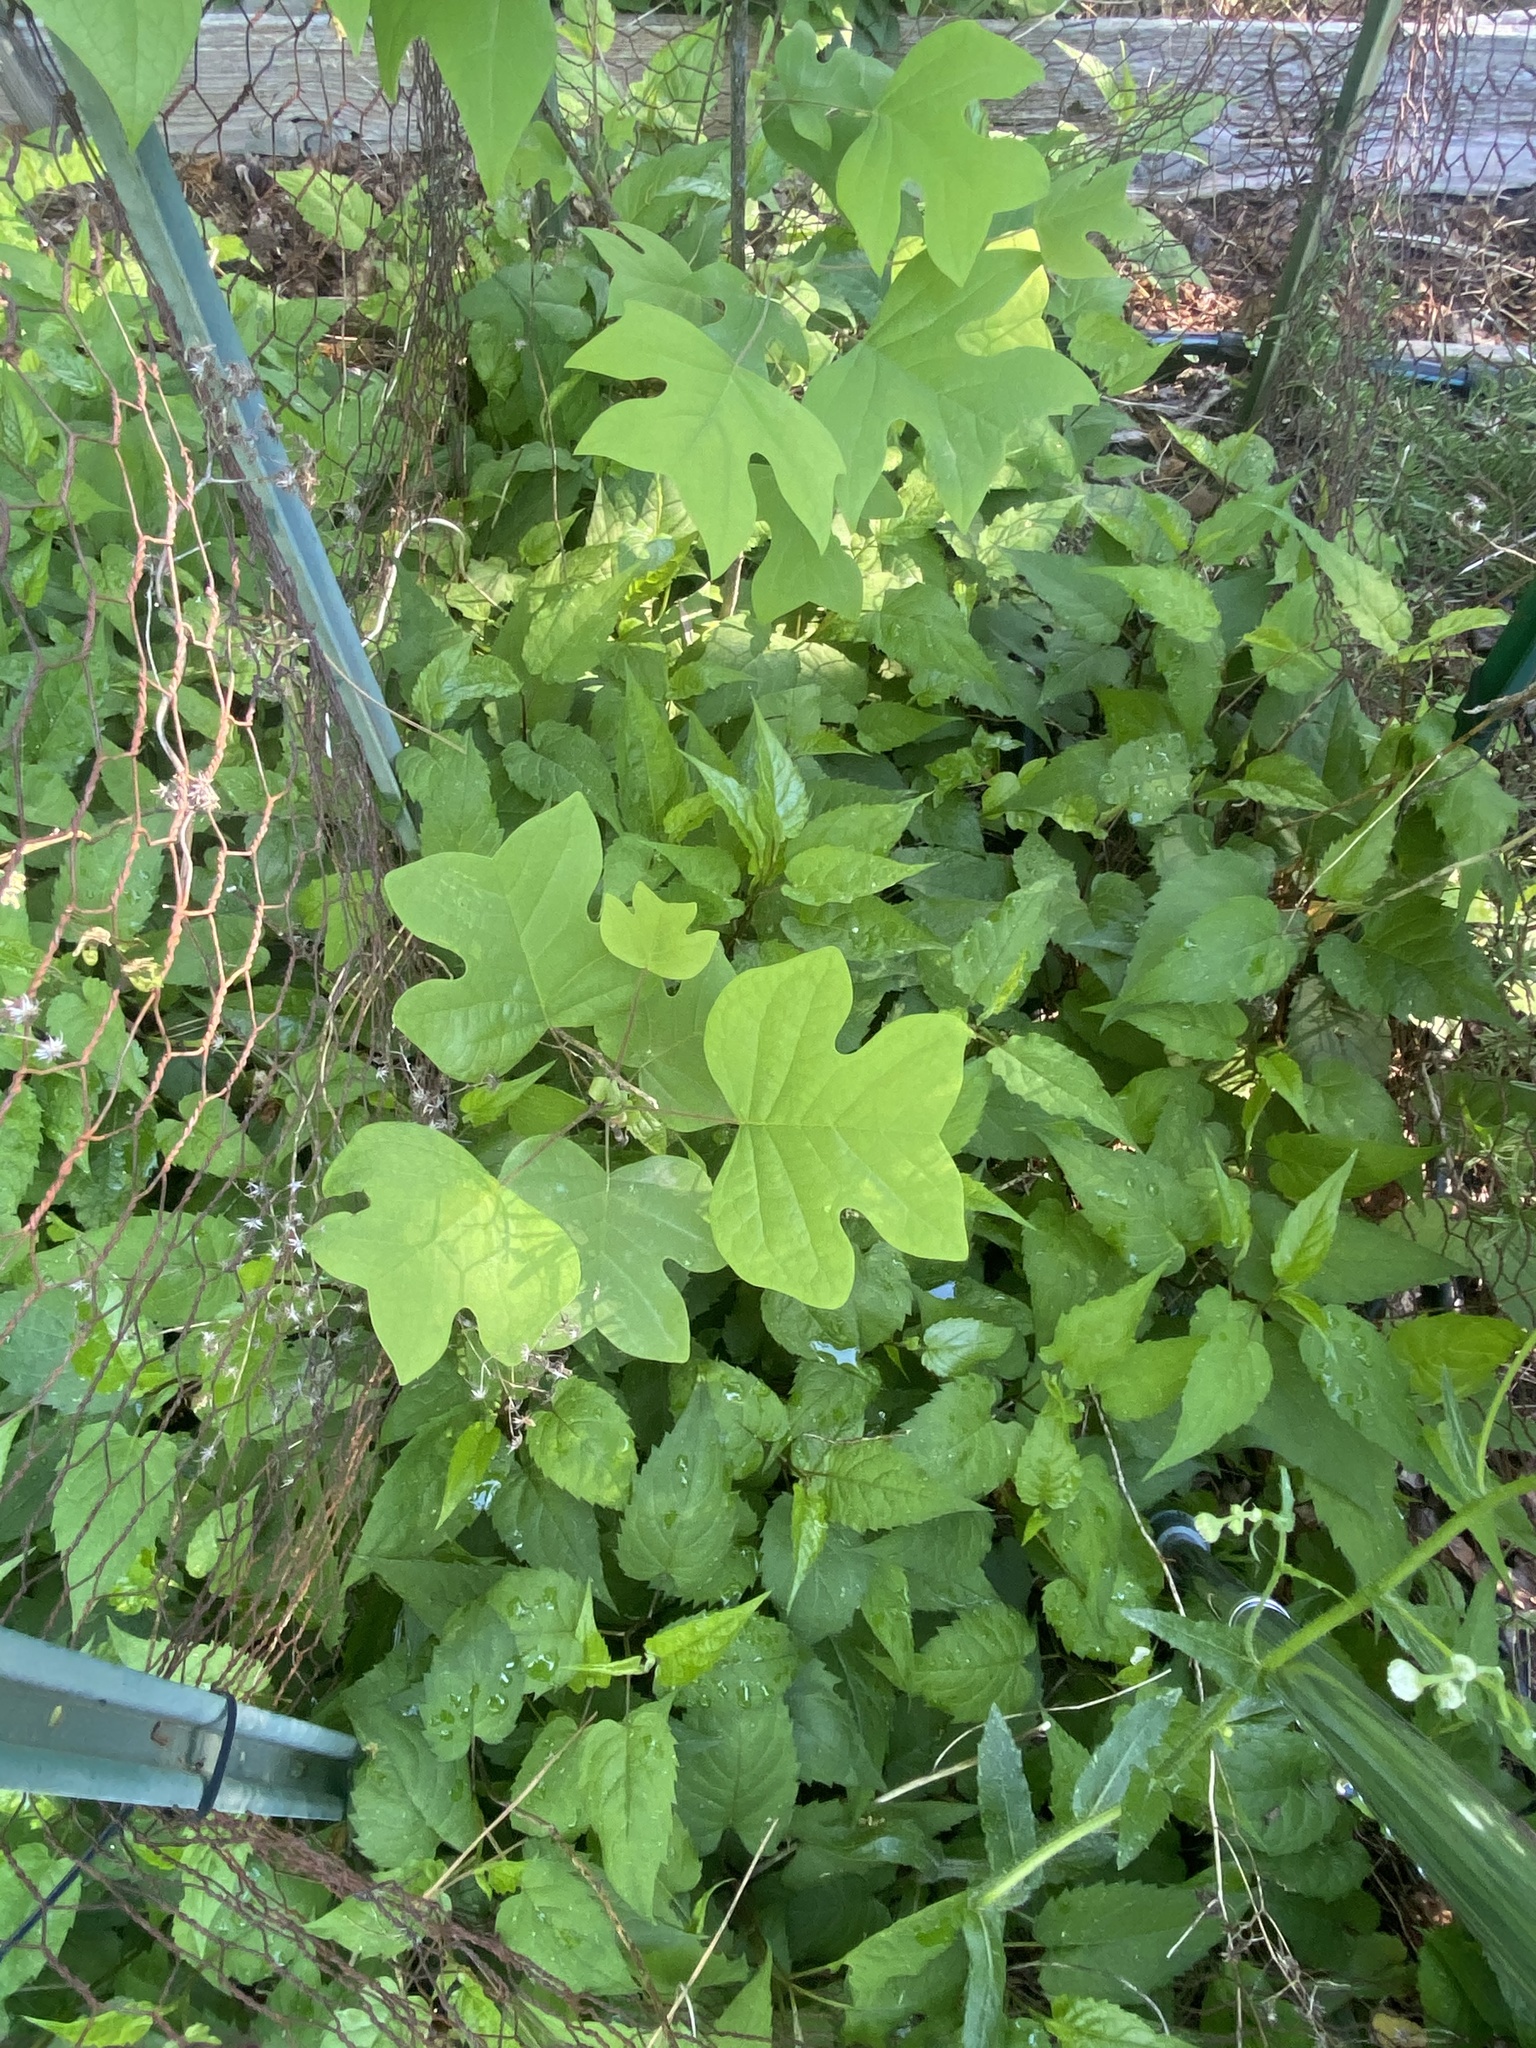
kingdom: Plantae
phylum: Tracheophyta
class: Magnoliopsida
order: Magnoliales
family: Magnoliaceae
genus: Liriodendron
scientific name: Liriodendron tulipifera
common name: Tulip tree
